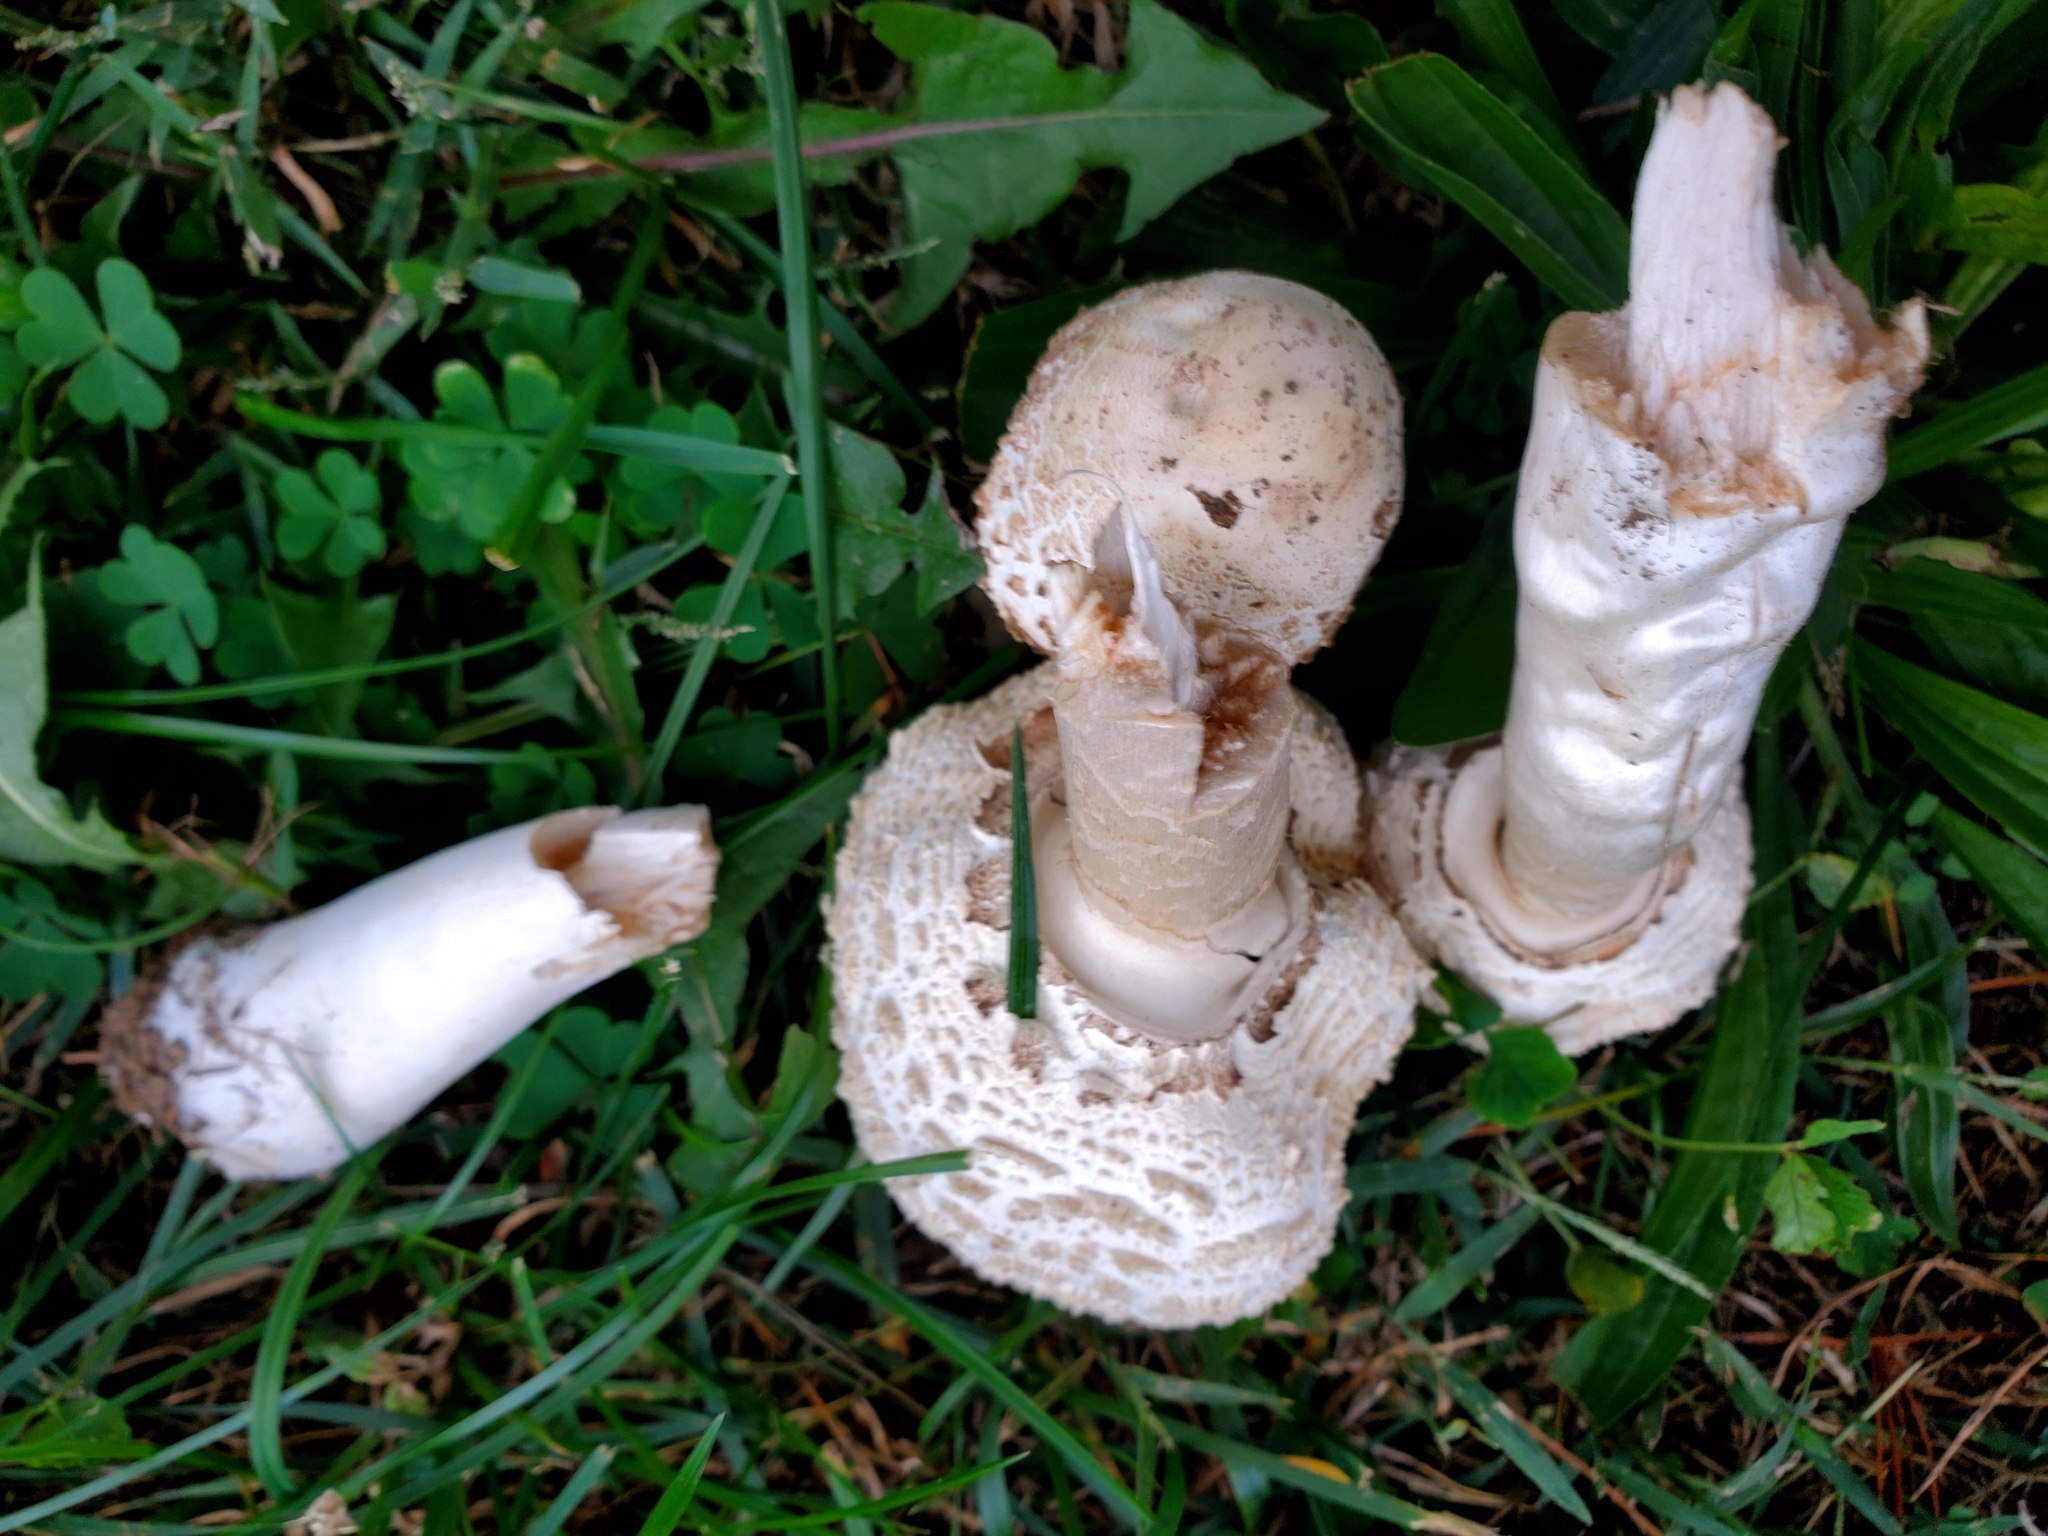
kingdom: Fungi
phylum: Basidiomycota
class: Agaricomycetes
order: Agaricales
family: Agaricaceae
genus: Chlorophyllum
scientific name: Chlorophyllum molybdites
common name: False parasol
